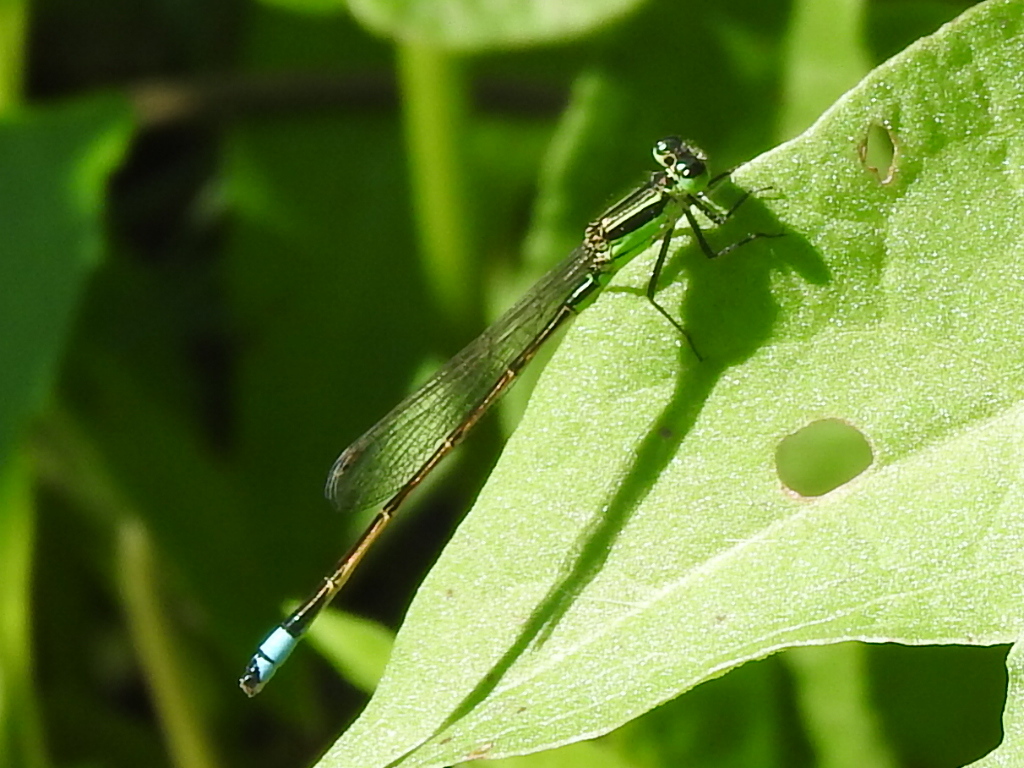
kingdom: Animalia
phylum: Arthropoda
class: Insecta
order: Odonata
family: Coenagrionidae
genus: Ischnura
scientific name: Ischnura ramburii
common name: Rambur's forktail
